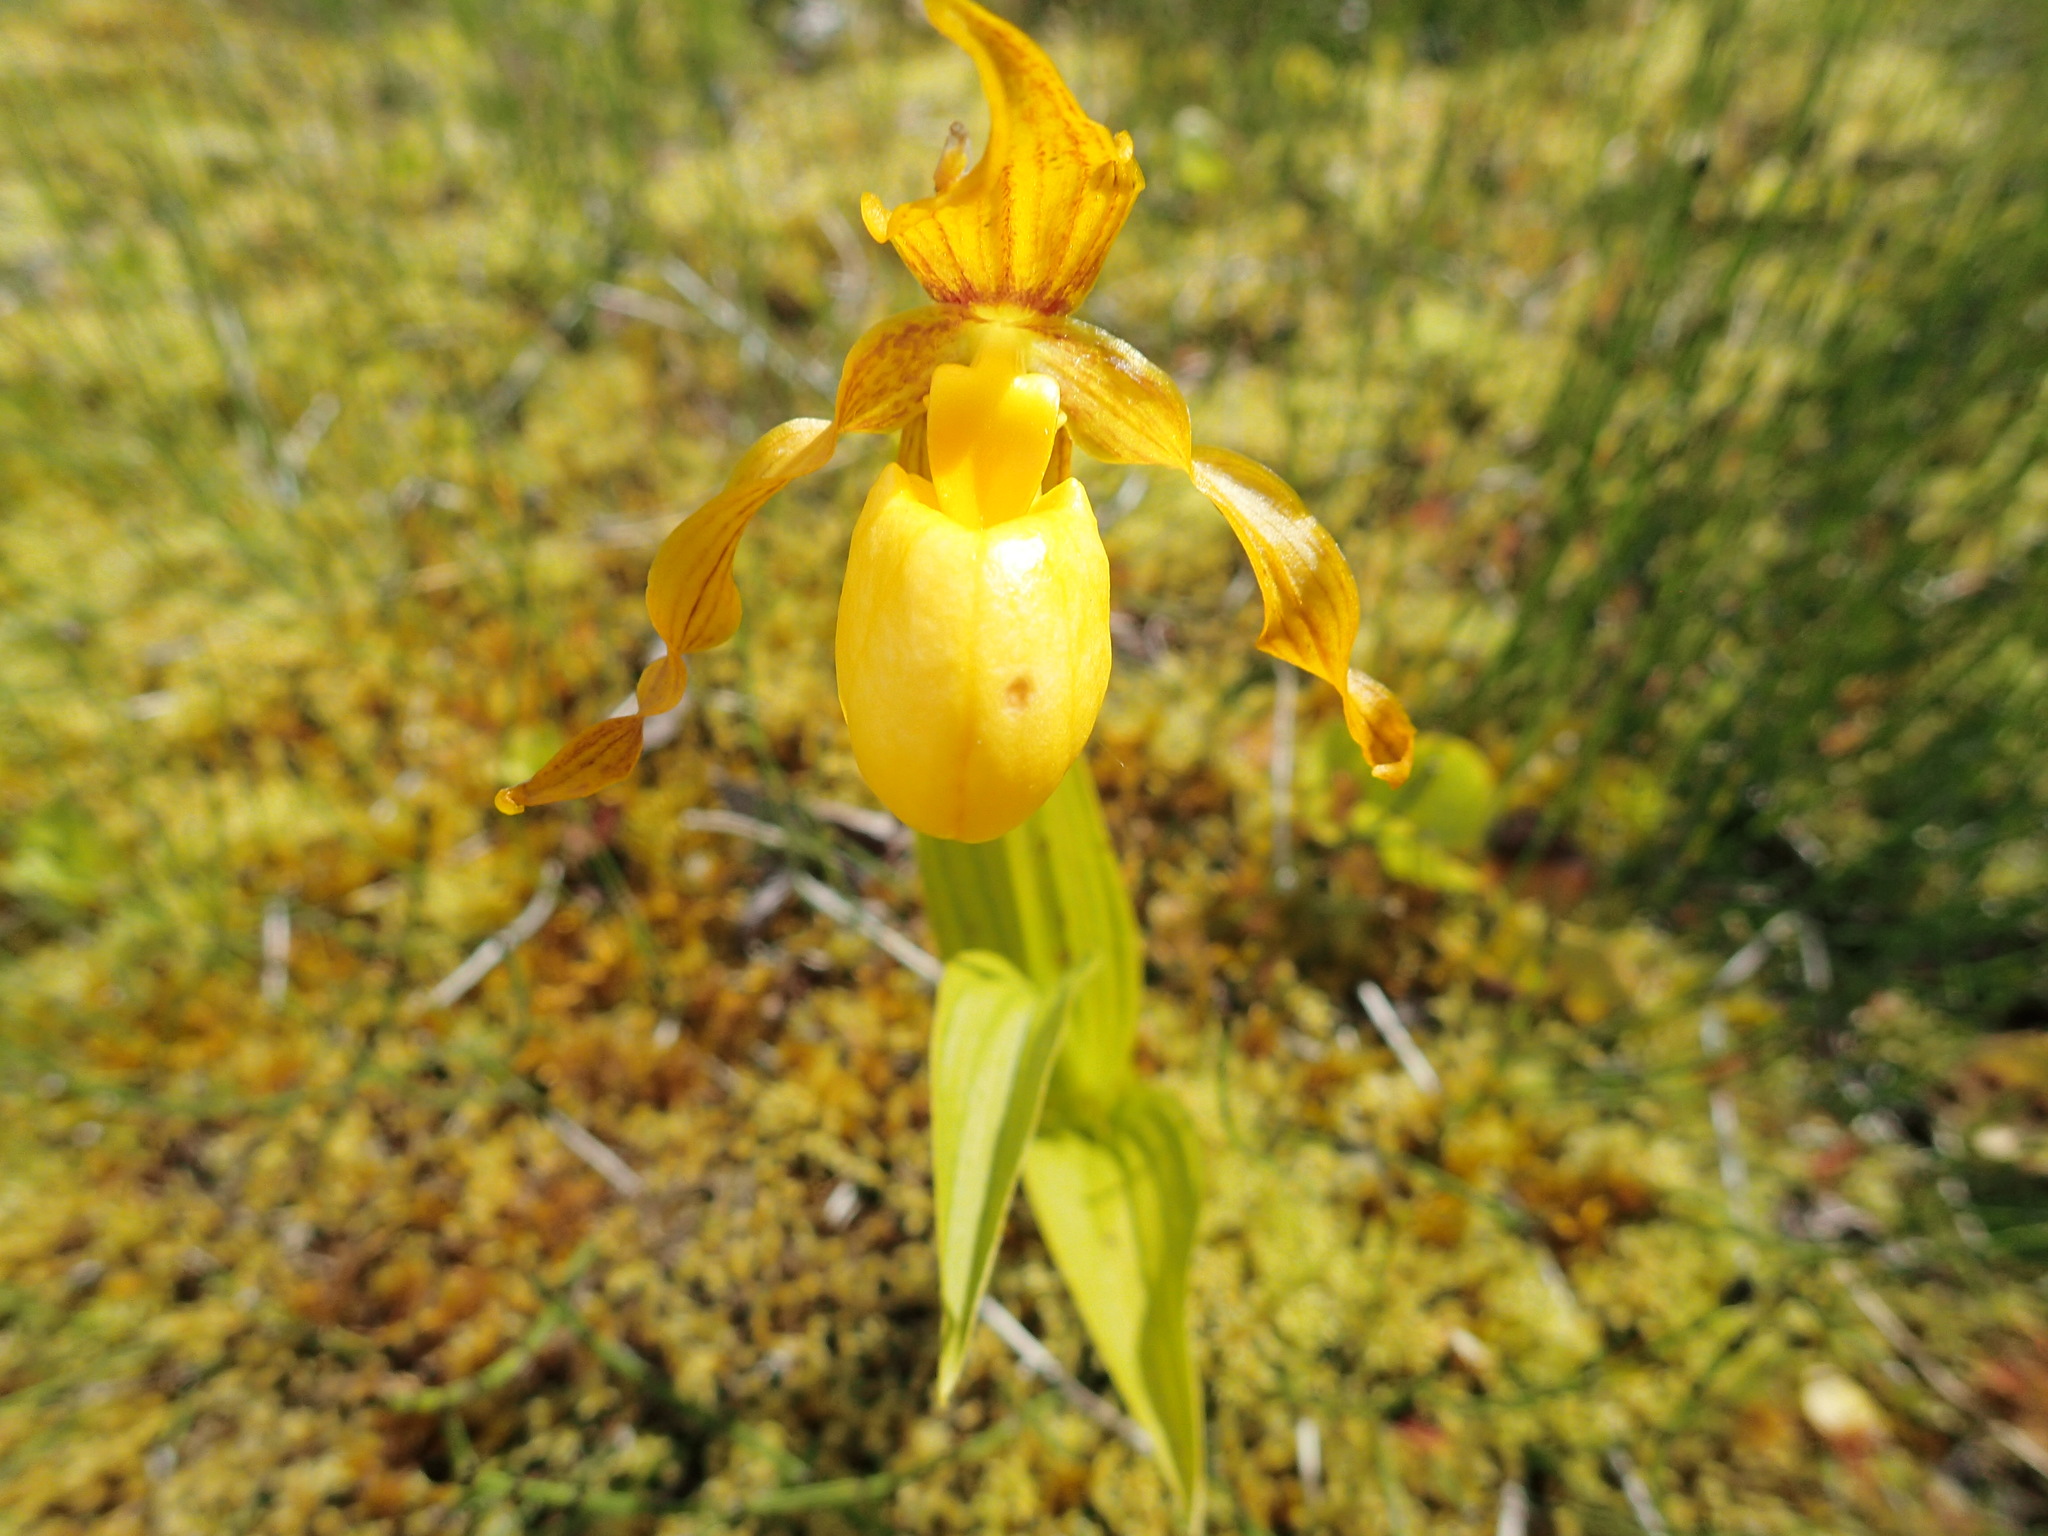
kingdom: Plantae
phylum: Tracheophyta
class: Liliopsida
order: Asparagales
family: Orchidaceae
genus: Cypripedium
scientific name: Cypripedium parviflorum
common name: American yellow lady's-slipper
